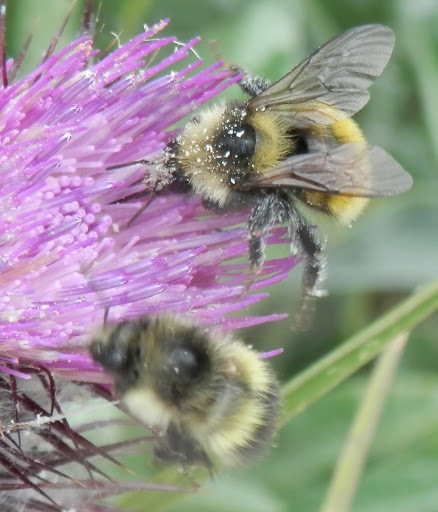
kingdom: Animalia
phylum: Arthropoda
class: Insecta
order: Hymenoptera
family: Apidae
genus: Bombus
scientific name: Bombus appositus
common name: White-shouldered bumble bee
